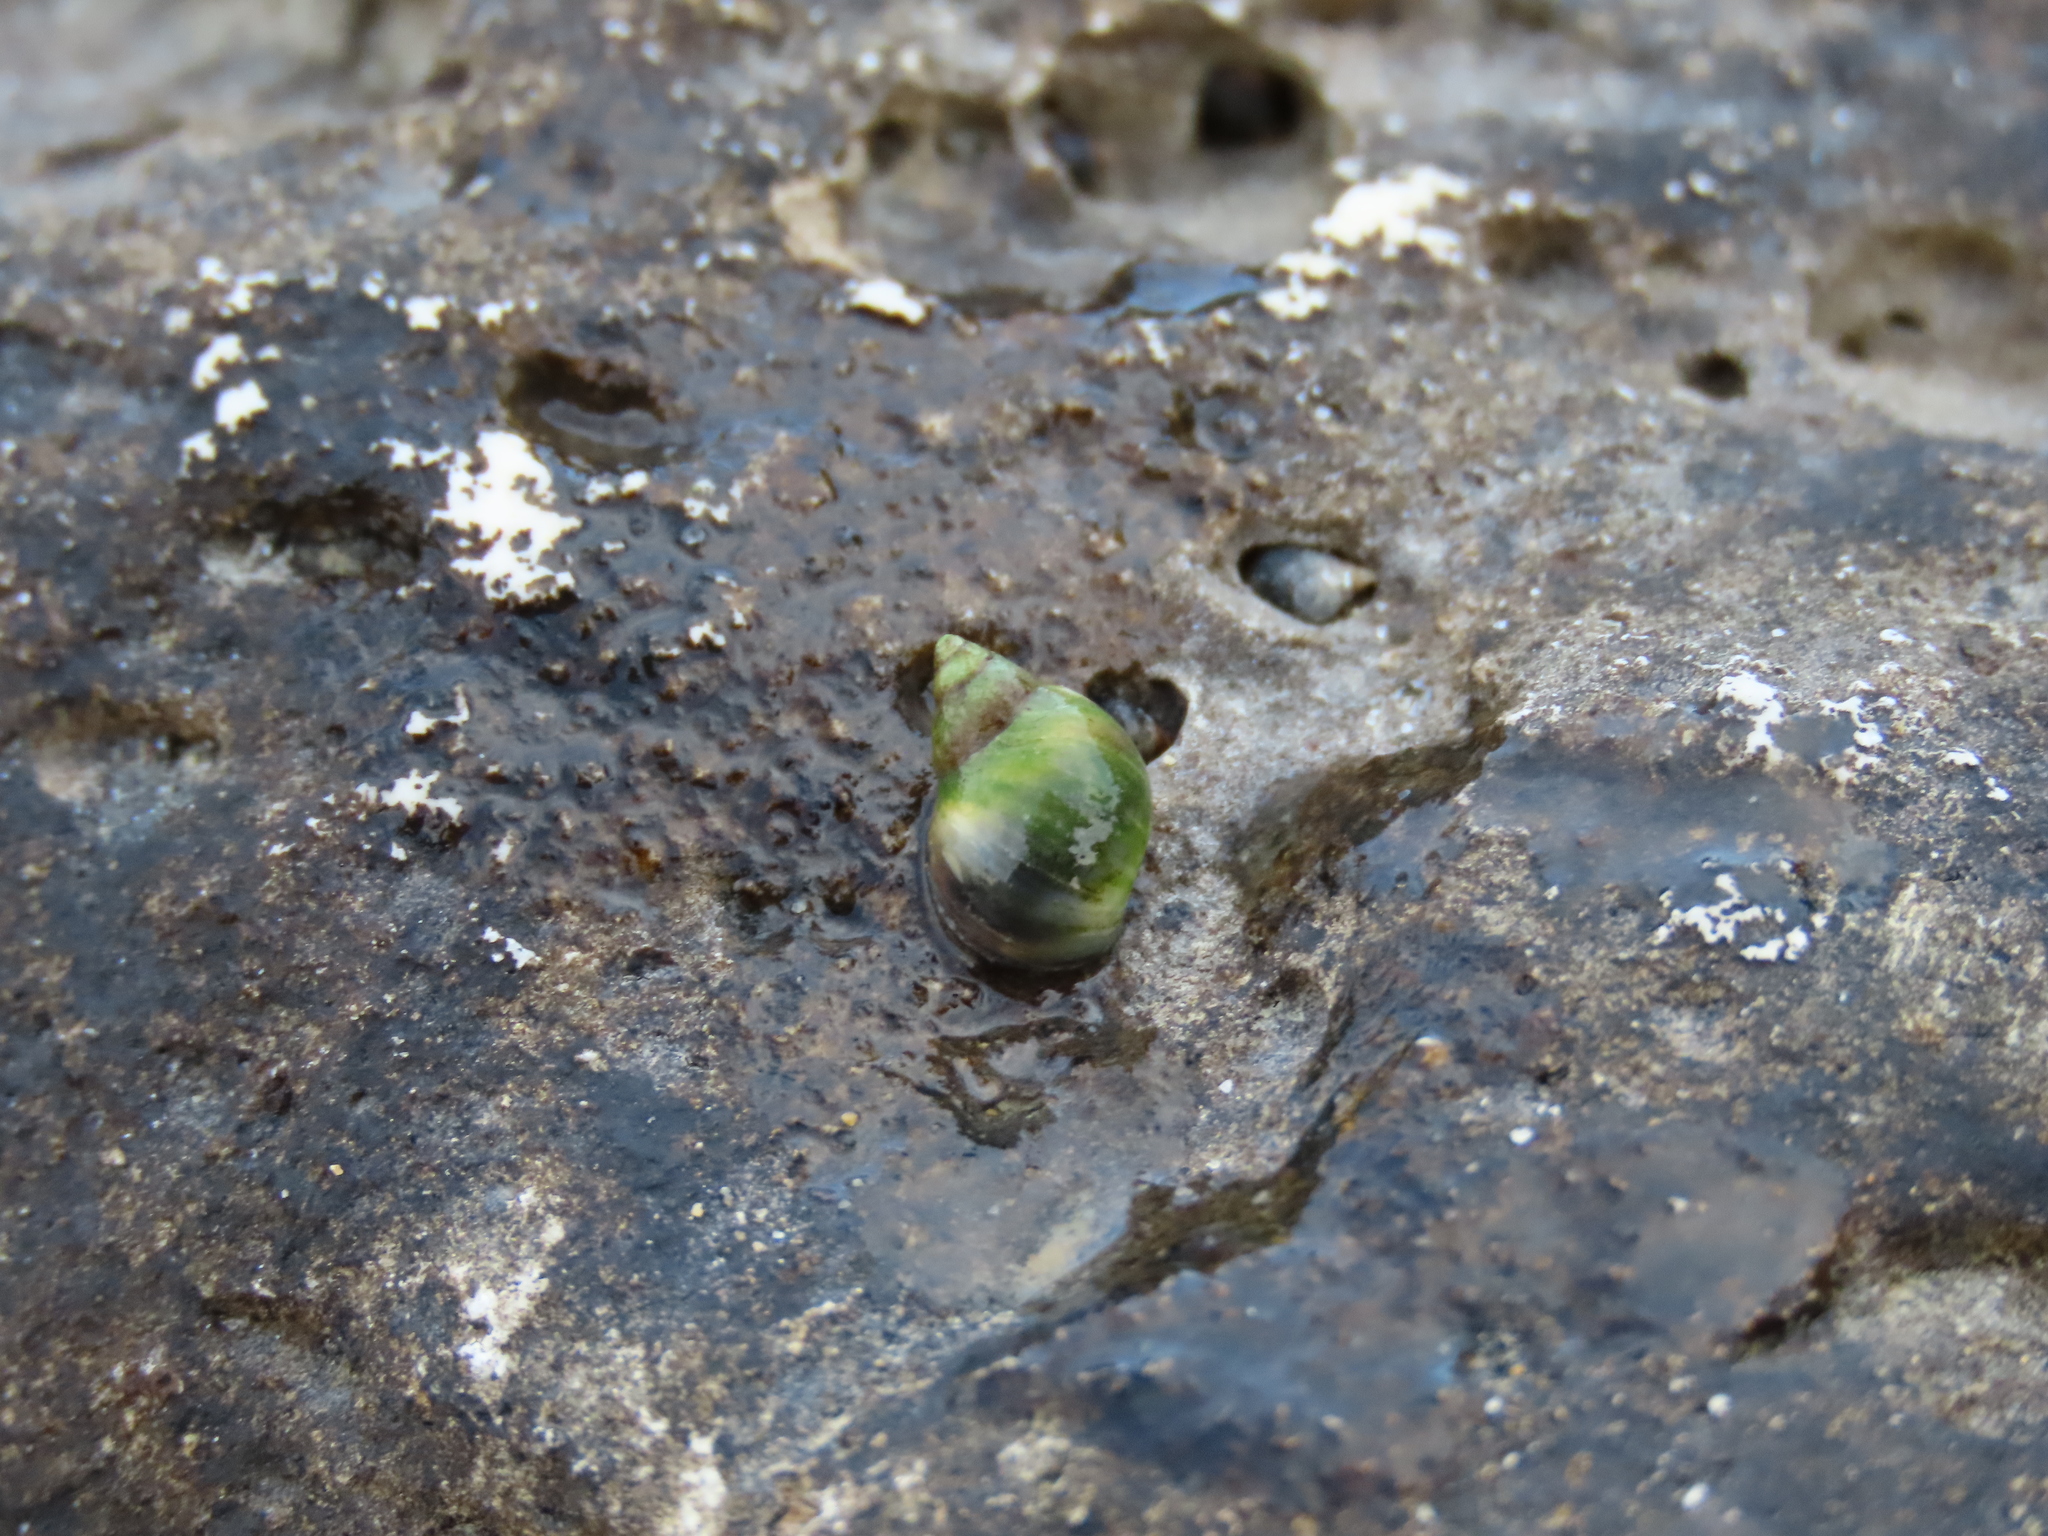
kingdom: Animalia
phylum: Mollusca
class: Gastropoda
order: Littorinimorpha
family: Littorinidae
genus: Melarhaphe
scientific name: Melarhaphe neritoides
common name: Small periwinkle
